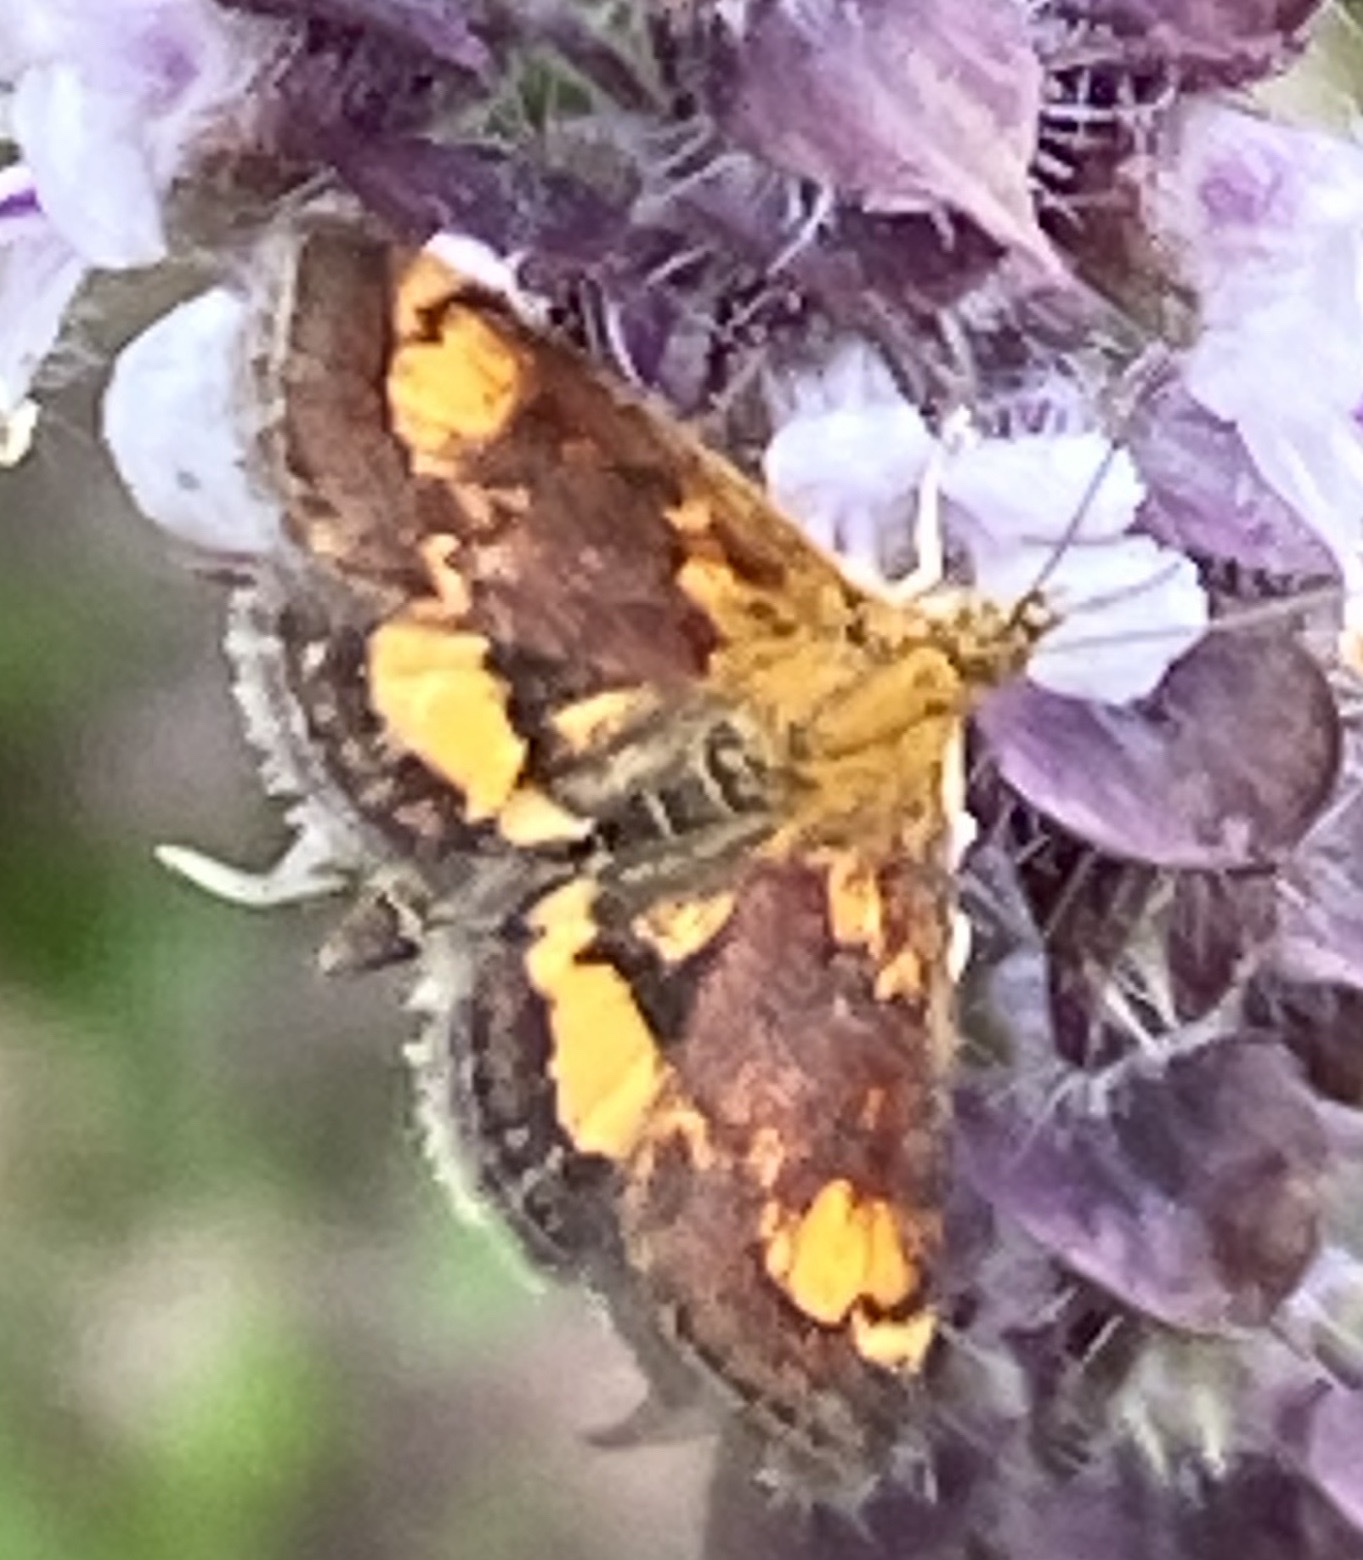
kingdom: Animalia
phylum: Arthropoda
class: Insecta
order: Lepidoptera
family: Crambidae
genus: Pyrausta
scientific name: Pyrausta orphisalis
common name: Orange mint moth
